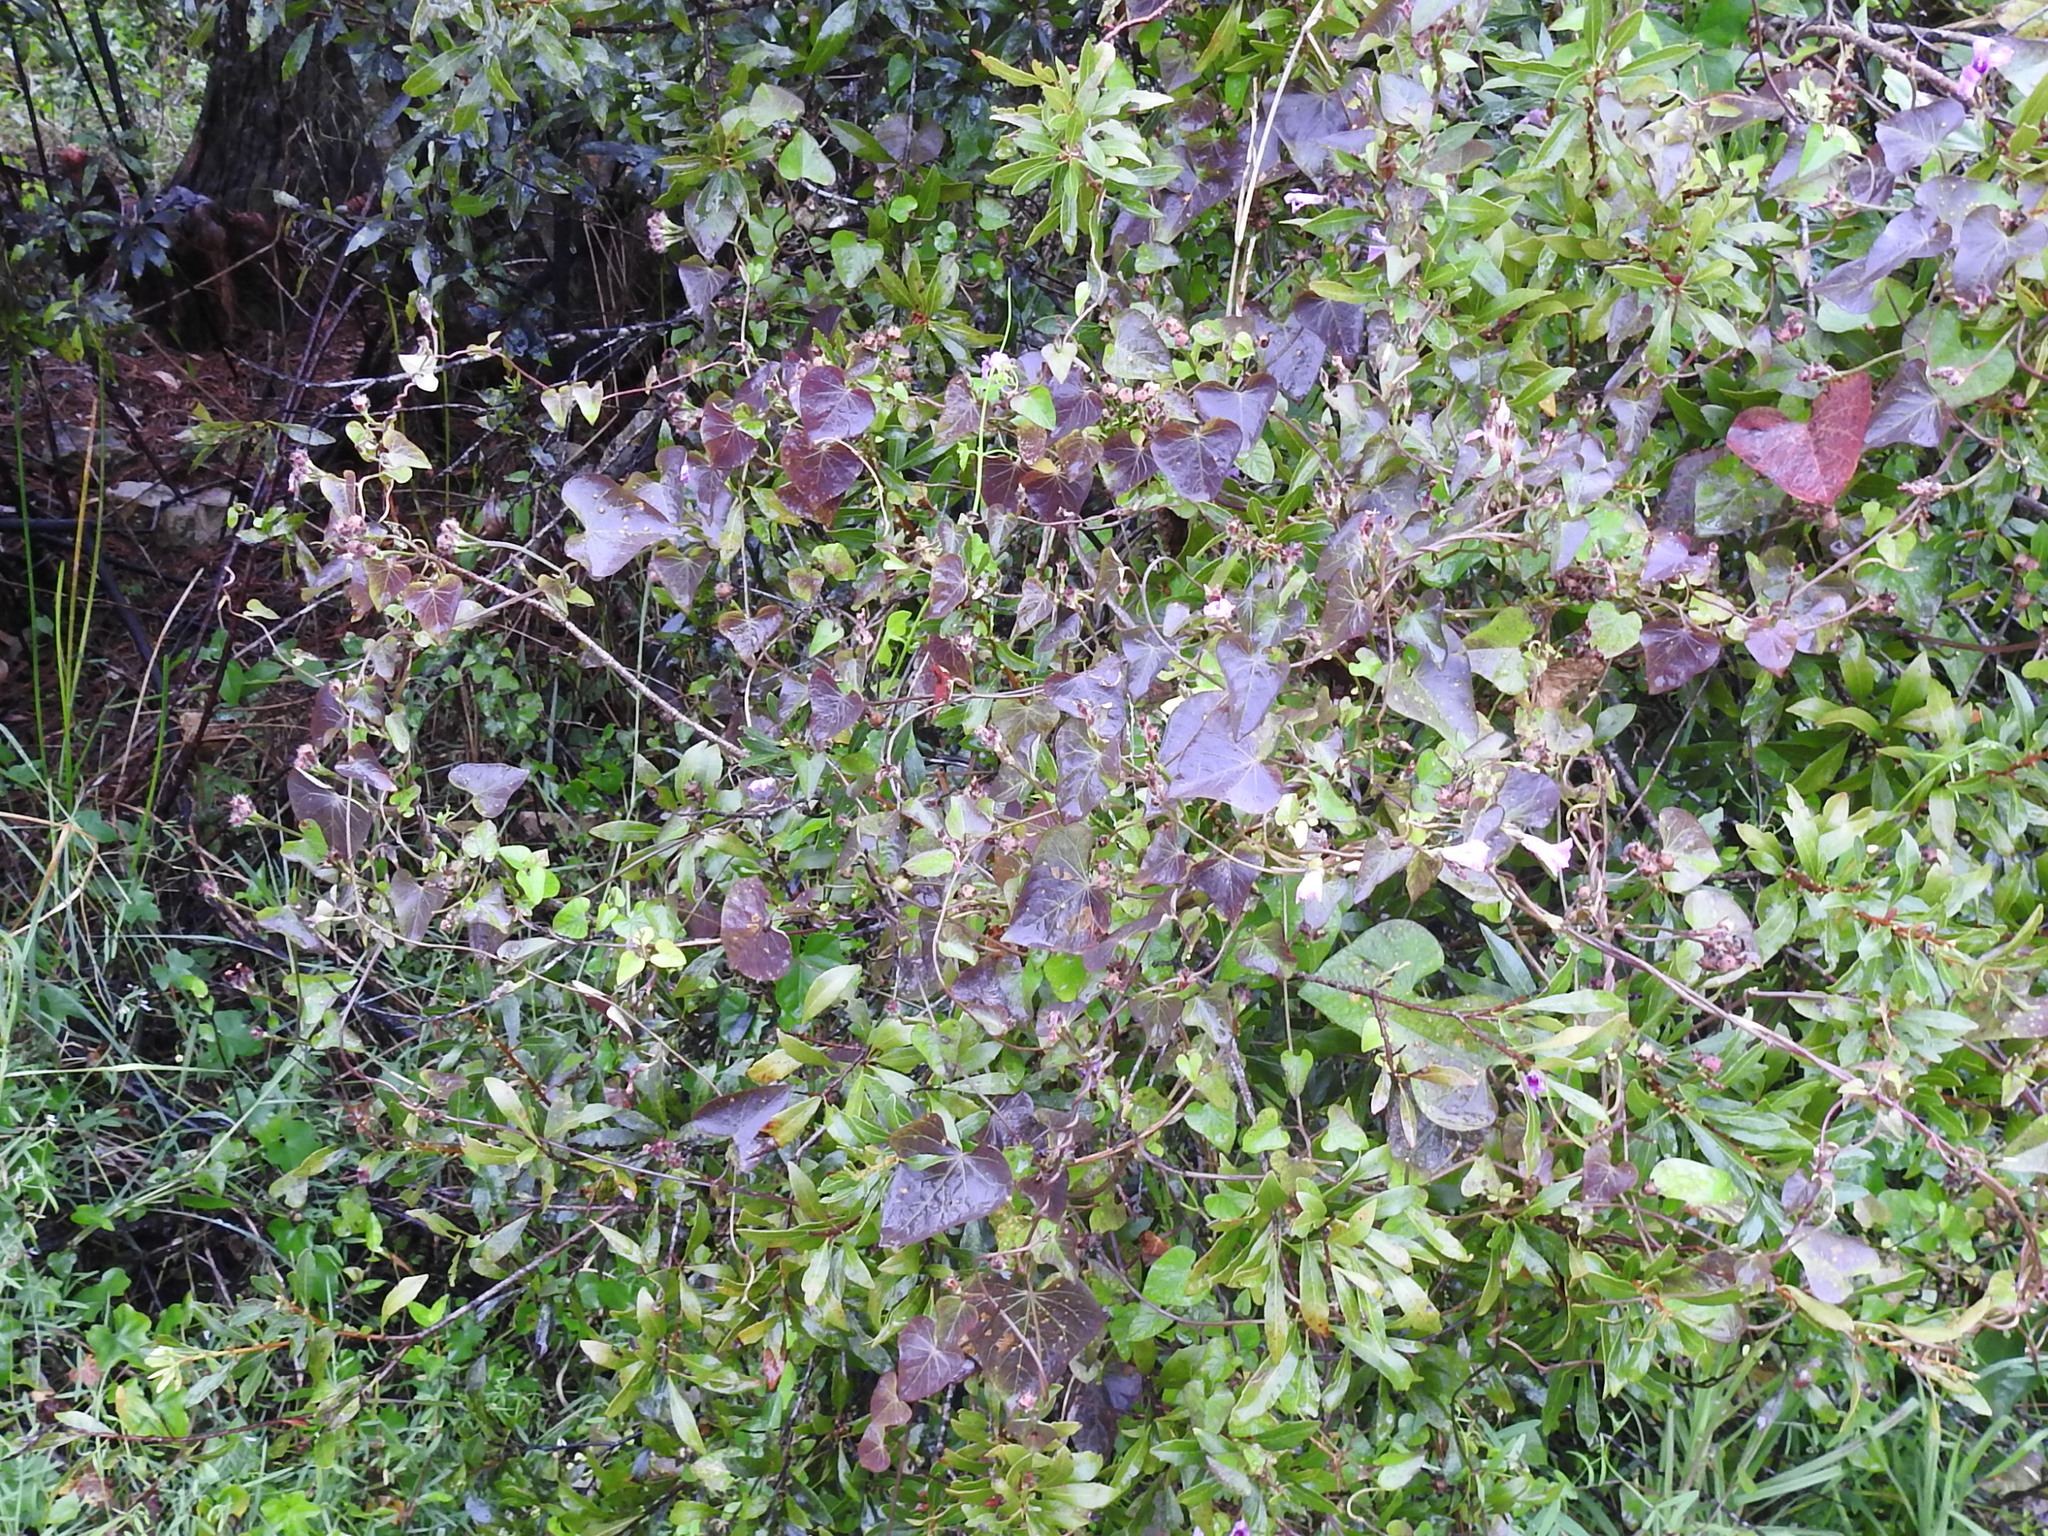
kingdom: Plantae
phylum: Tracheophyta
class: Magnoliopsida
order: Solanales
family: Convolvulaceae
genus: Ipomoea
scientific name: Ipomoea triloba
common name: Little-bell
